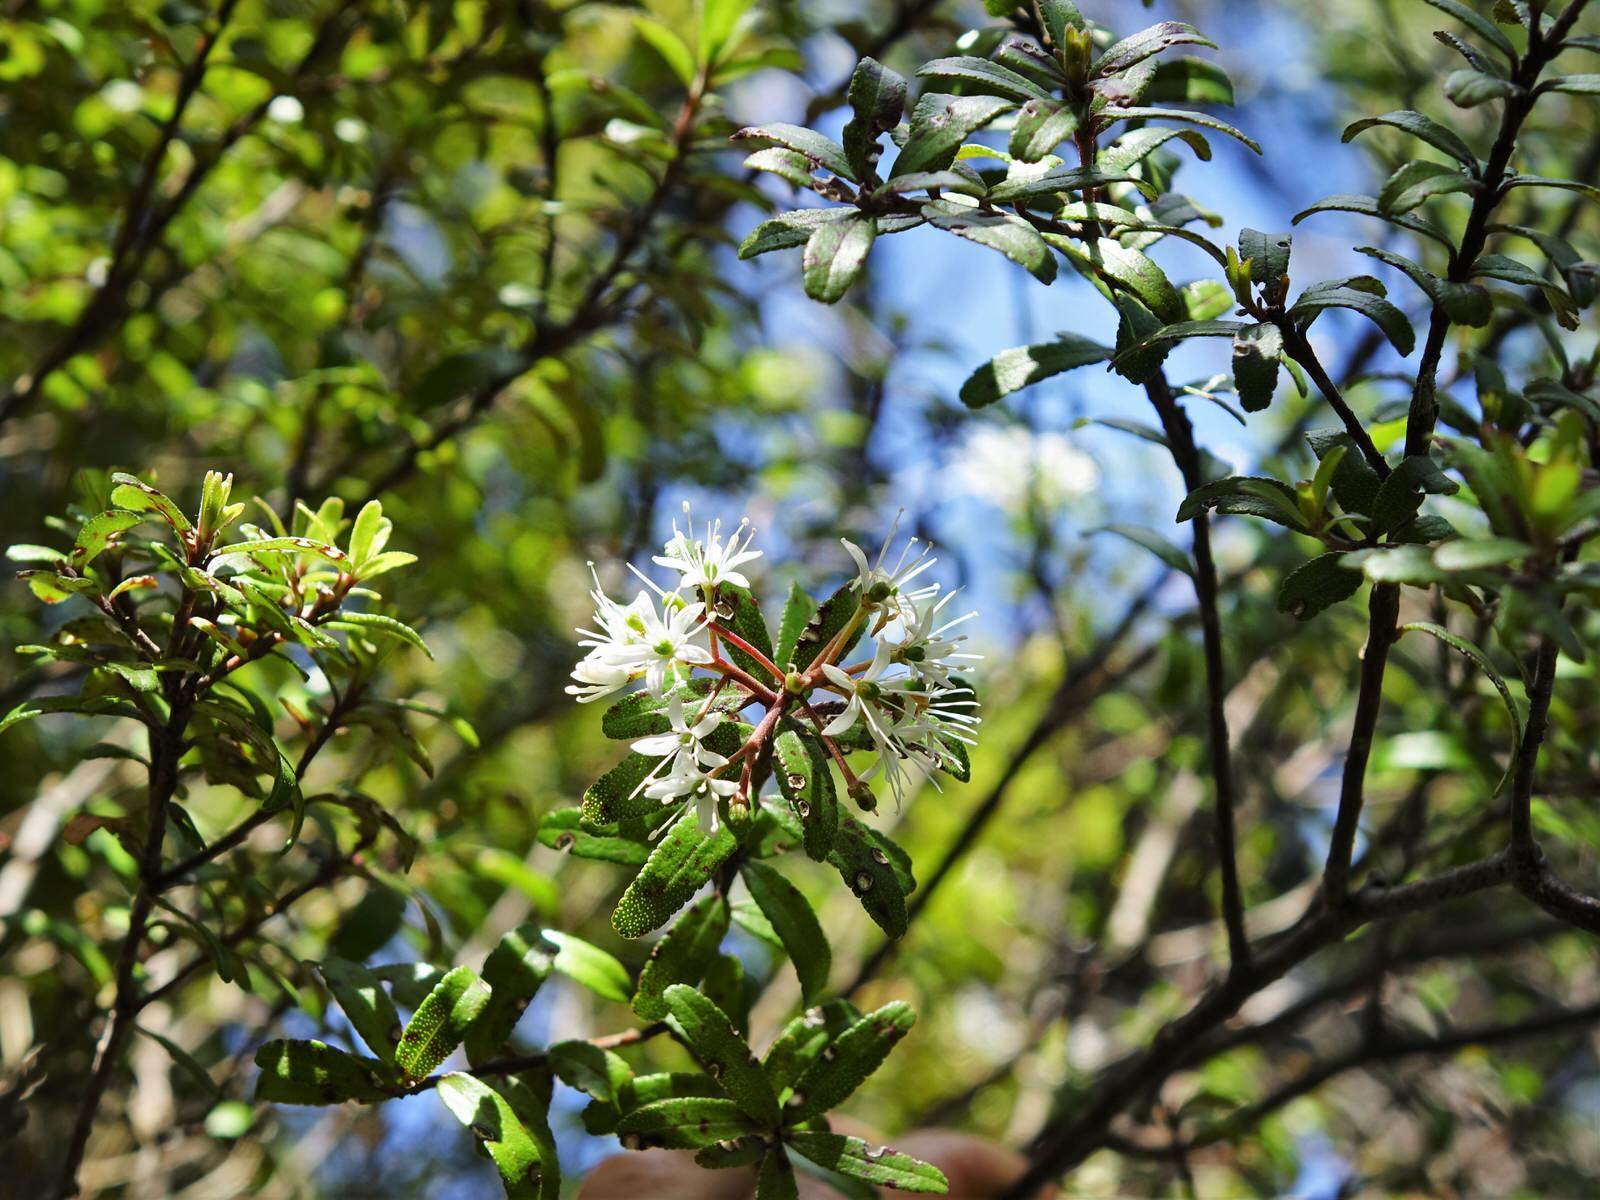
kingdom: Plantae
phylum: Tracheophyta
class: Magnoliopsida
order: Sapindales
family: Rutaceae
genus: Leionema
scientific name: Leionema nudum
